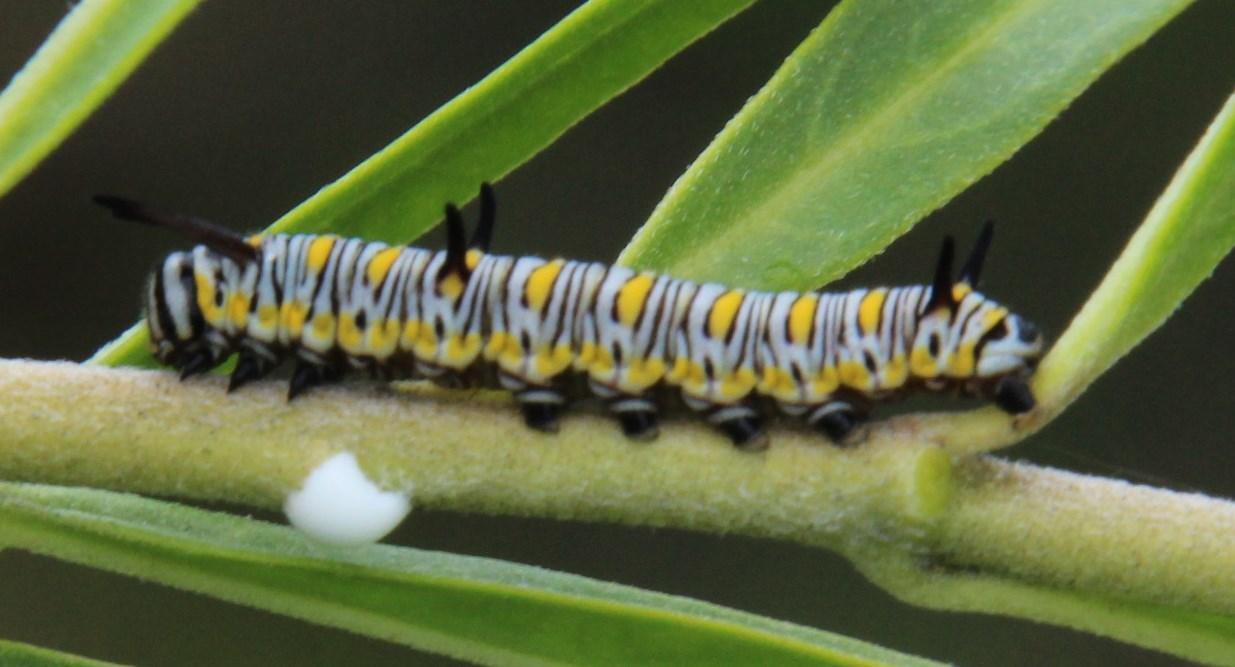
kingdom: Animalia
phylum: Arthropoda
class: Insecta
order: Lepidoptera
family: Nymphalidae
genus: Danaus
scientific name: Danaus chrysippus
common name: Plain tiger
